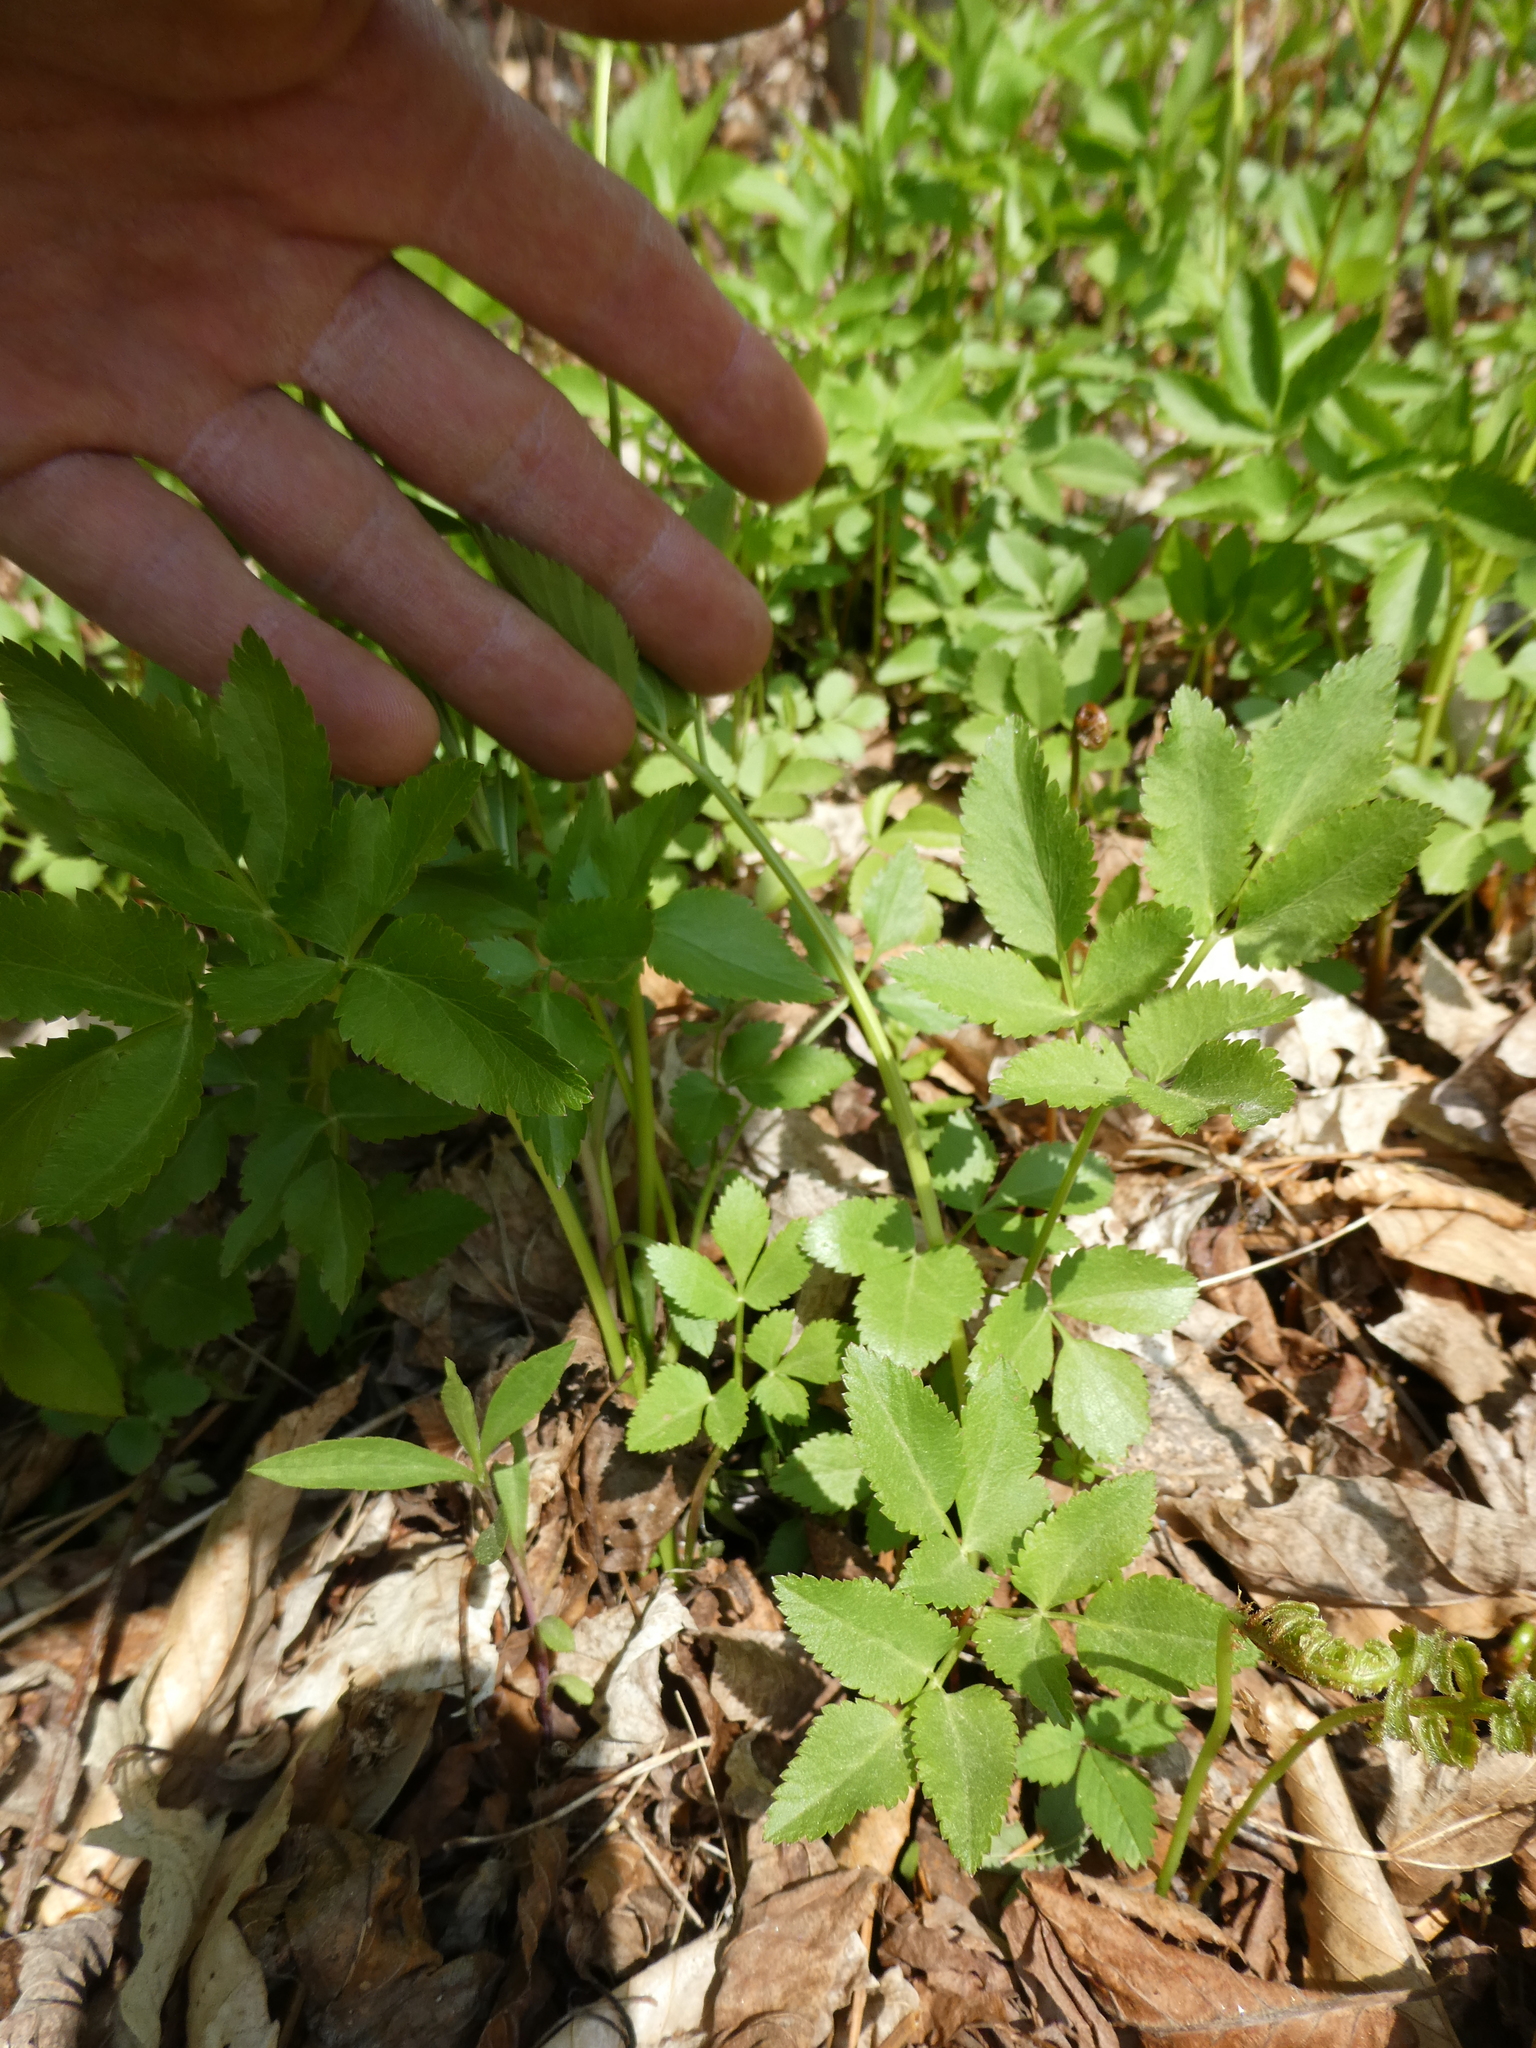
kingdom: Plantae
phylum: Tracheophyta
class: Magnoliopsida
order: Apiales
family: Apiaceae
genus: Zizia
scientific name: Zizia aurea
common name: Golden alexanders
